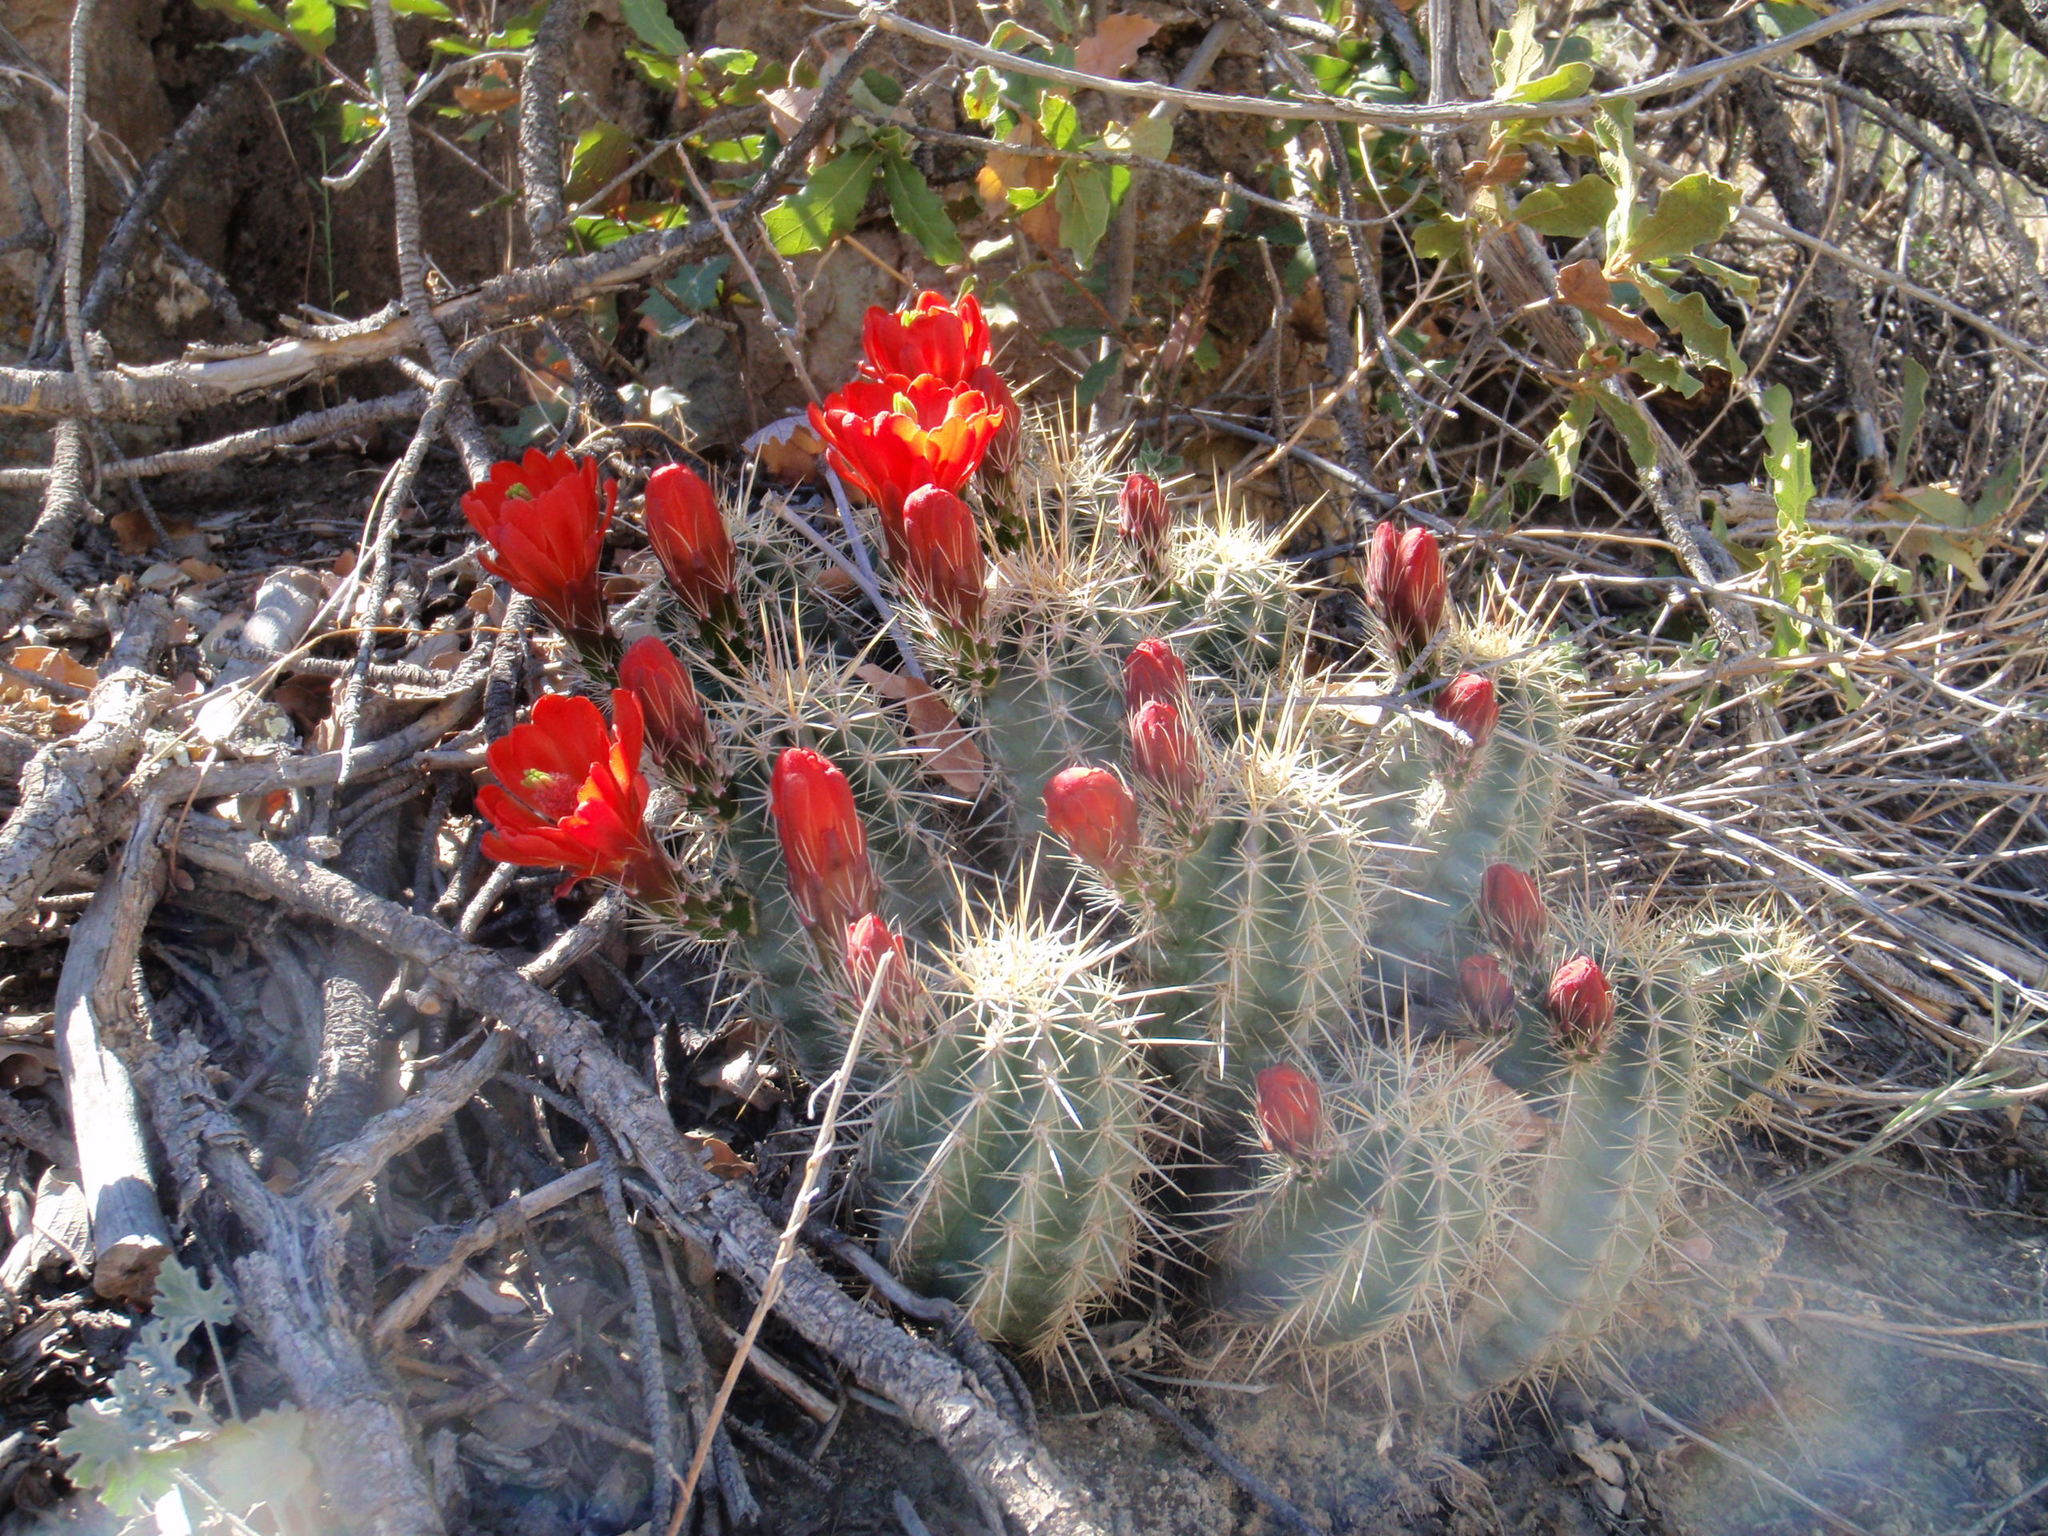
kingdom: Plantae
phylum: Tracheophyta
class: Magnoliopsida
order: Caryophyllales
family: Cactaceae
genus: Echinocereus
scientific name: Echinocereus coccineus
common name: Scarlet hedgehog cactus
